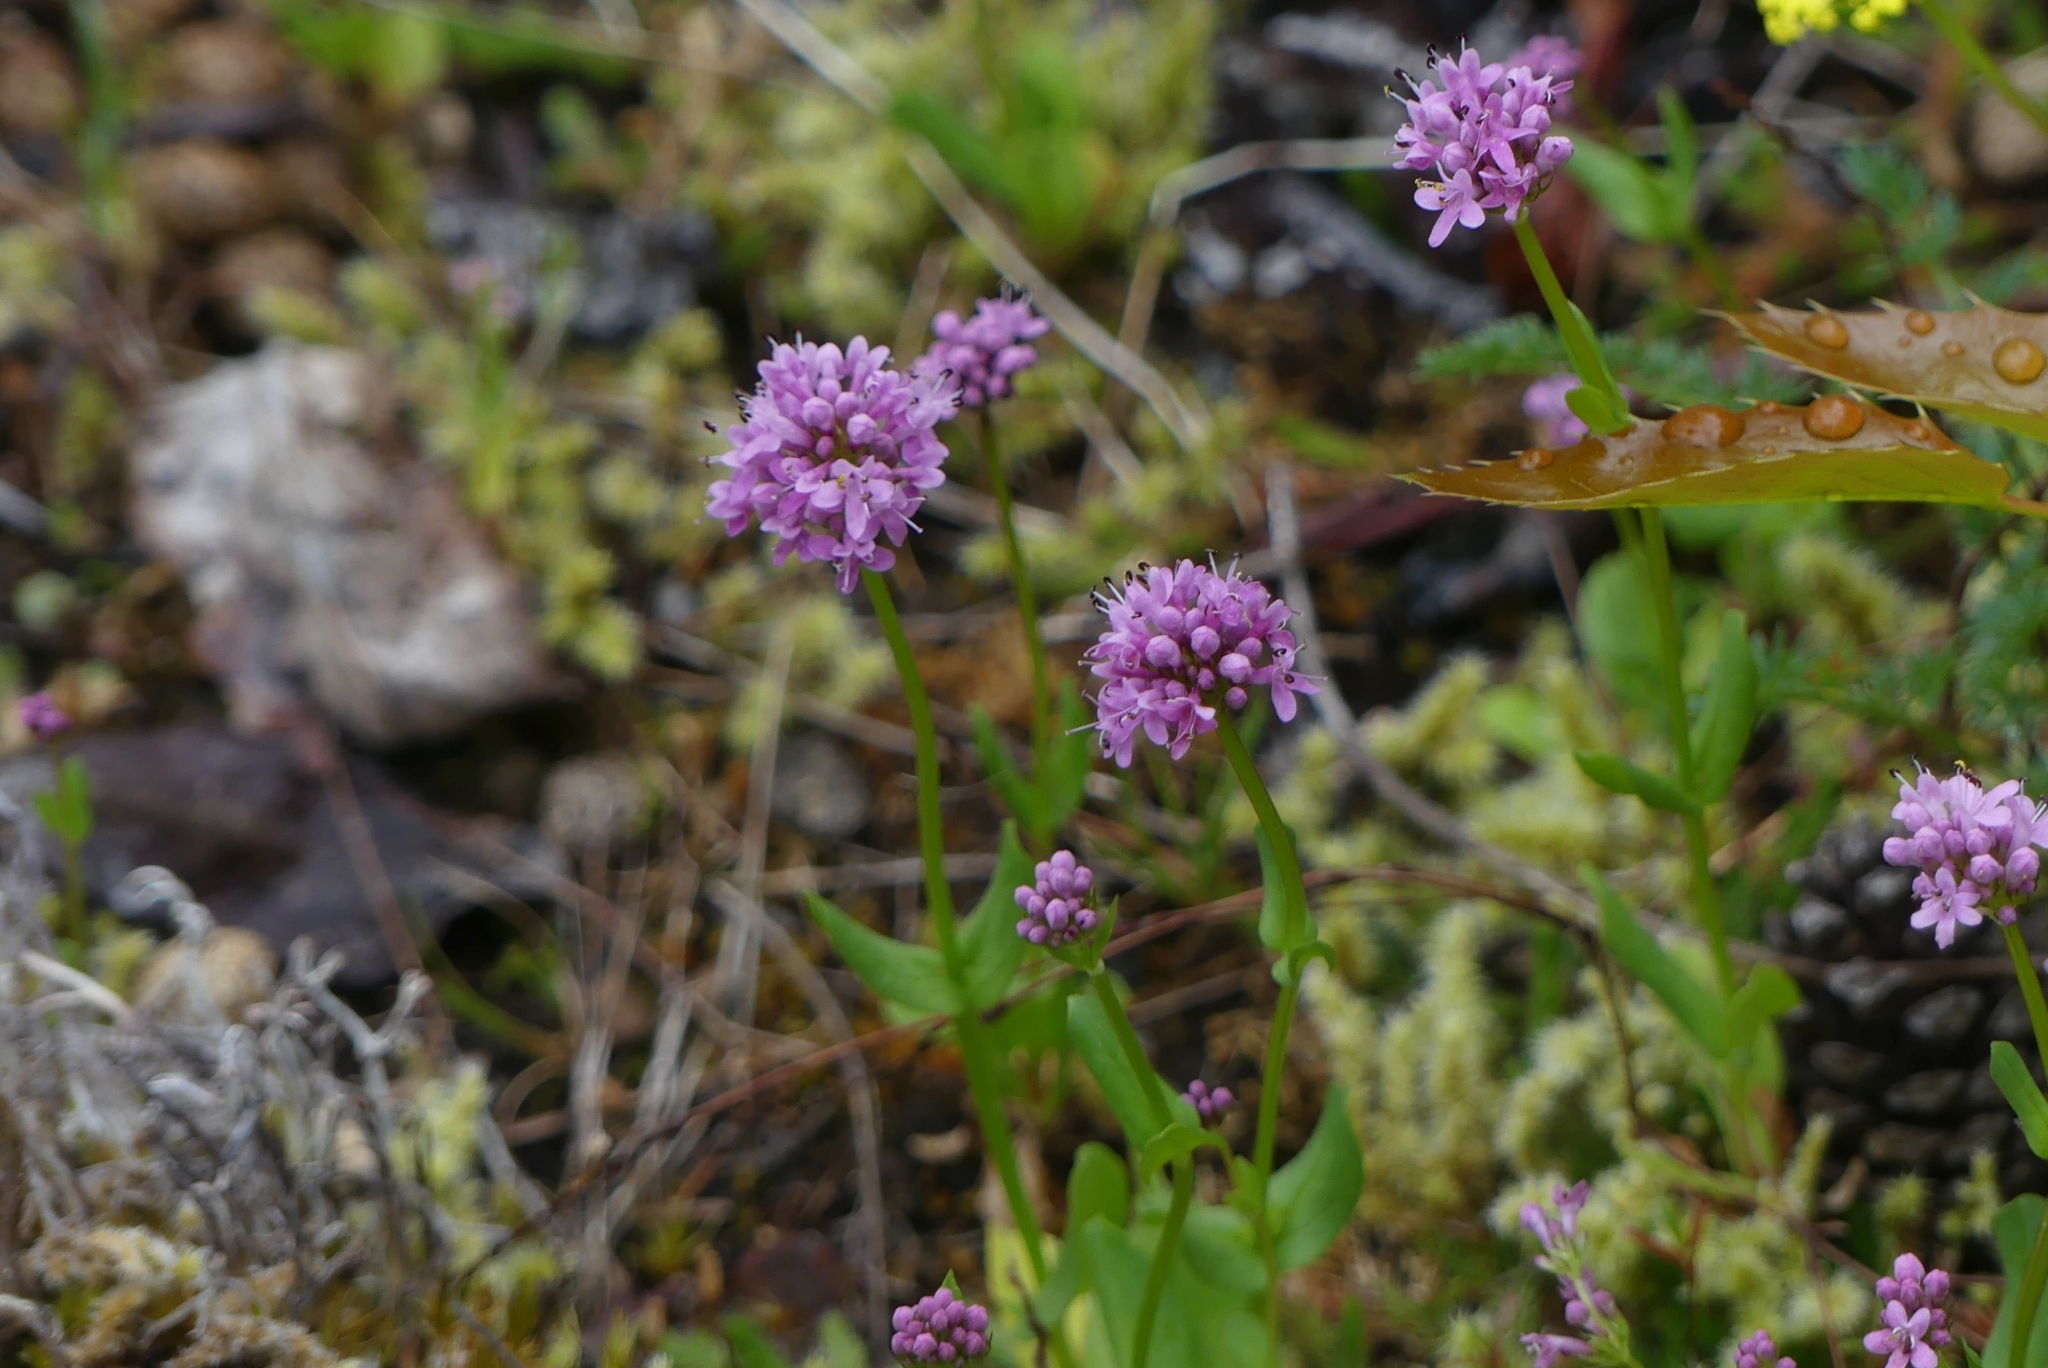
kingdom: Plantae
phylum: Tracheophyta
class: Magnoliopsida
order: Dipsacales
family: Caprifoliaceae
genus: Plectritis
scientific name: Plectritis congesta
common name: Pink plectritis
